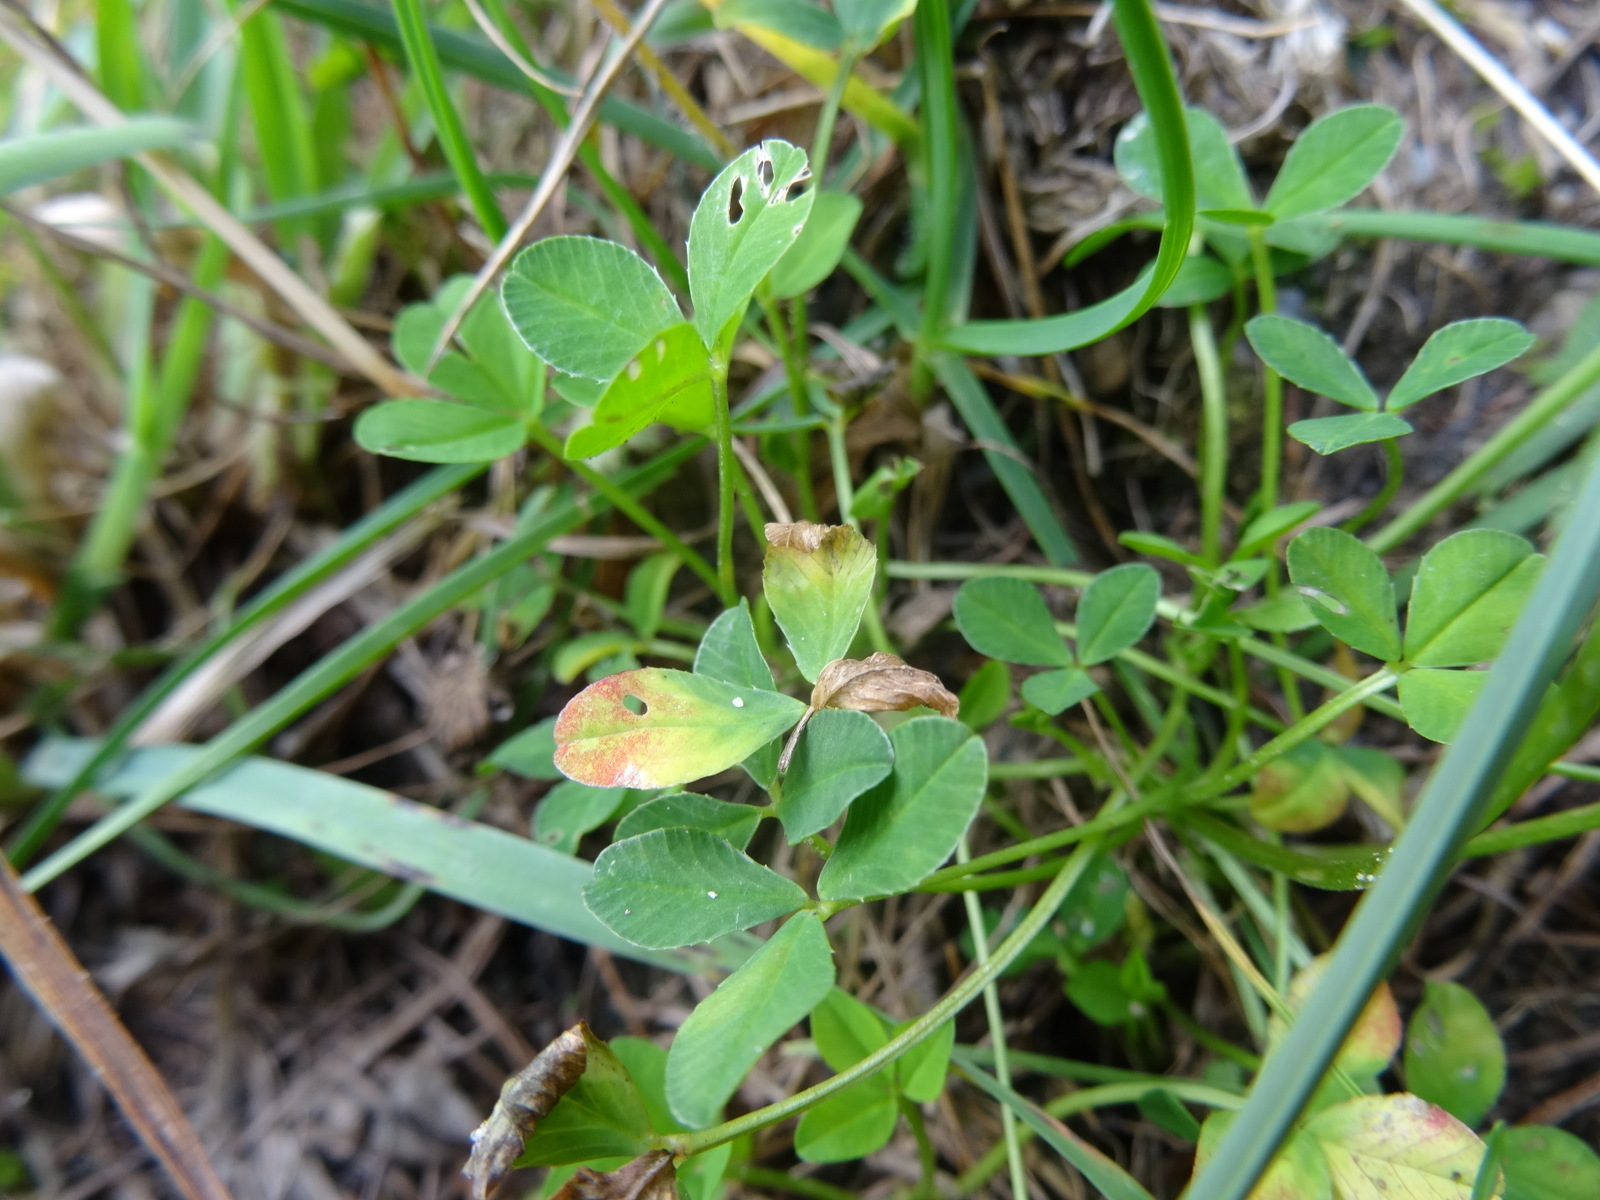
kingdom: Plantae
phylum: Tracheophyta
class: Magnoliopsida
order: Fabales
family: Fabaceae
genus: Trifolium
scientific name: Trifolium thalii
